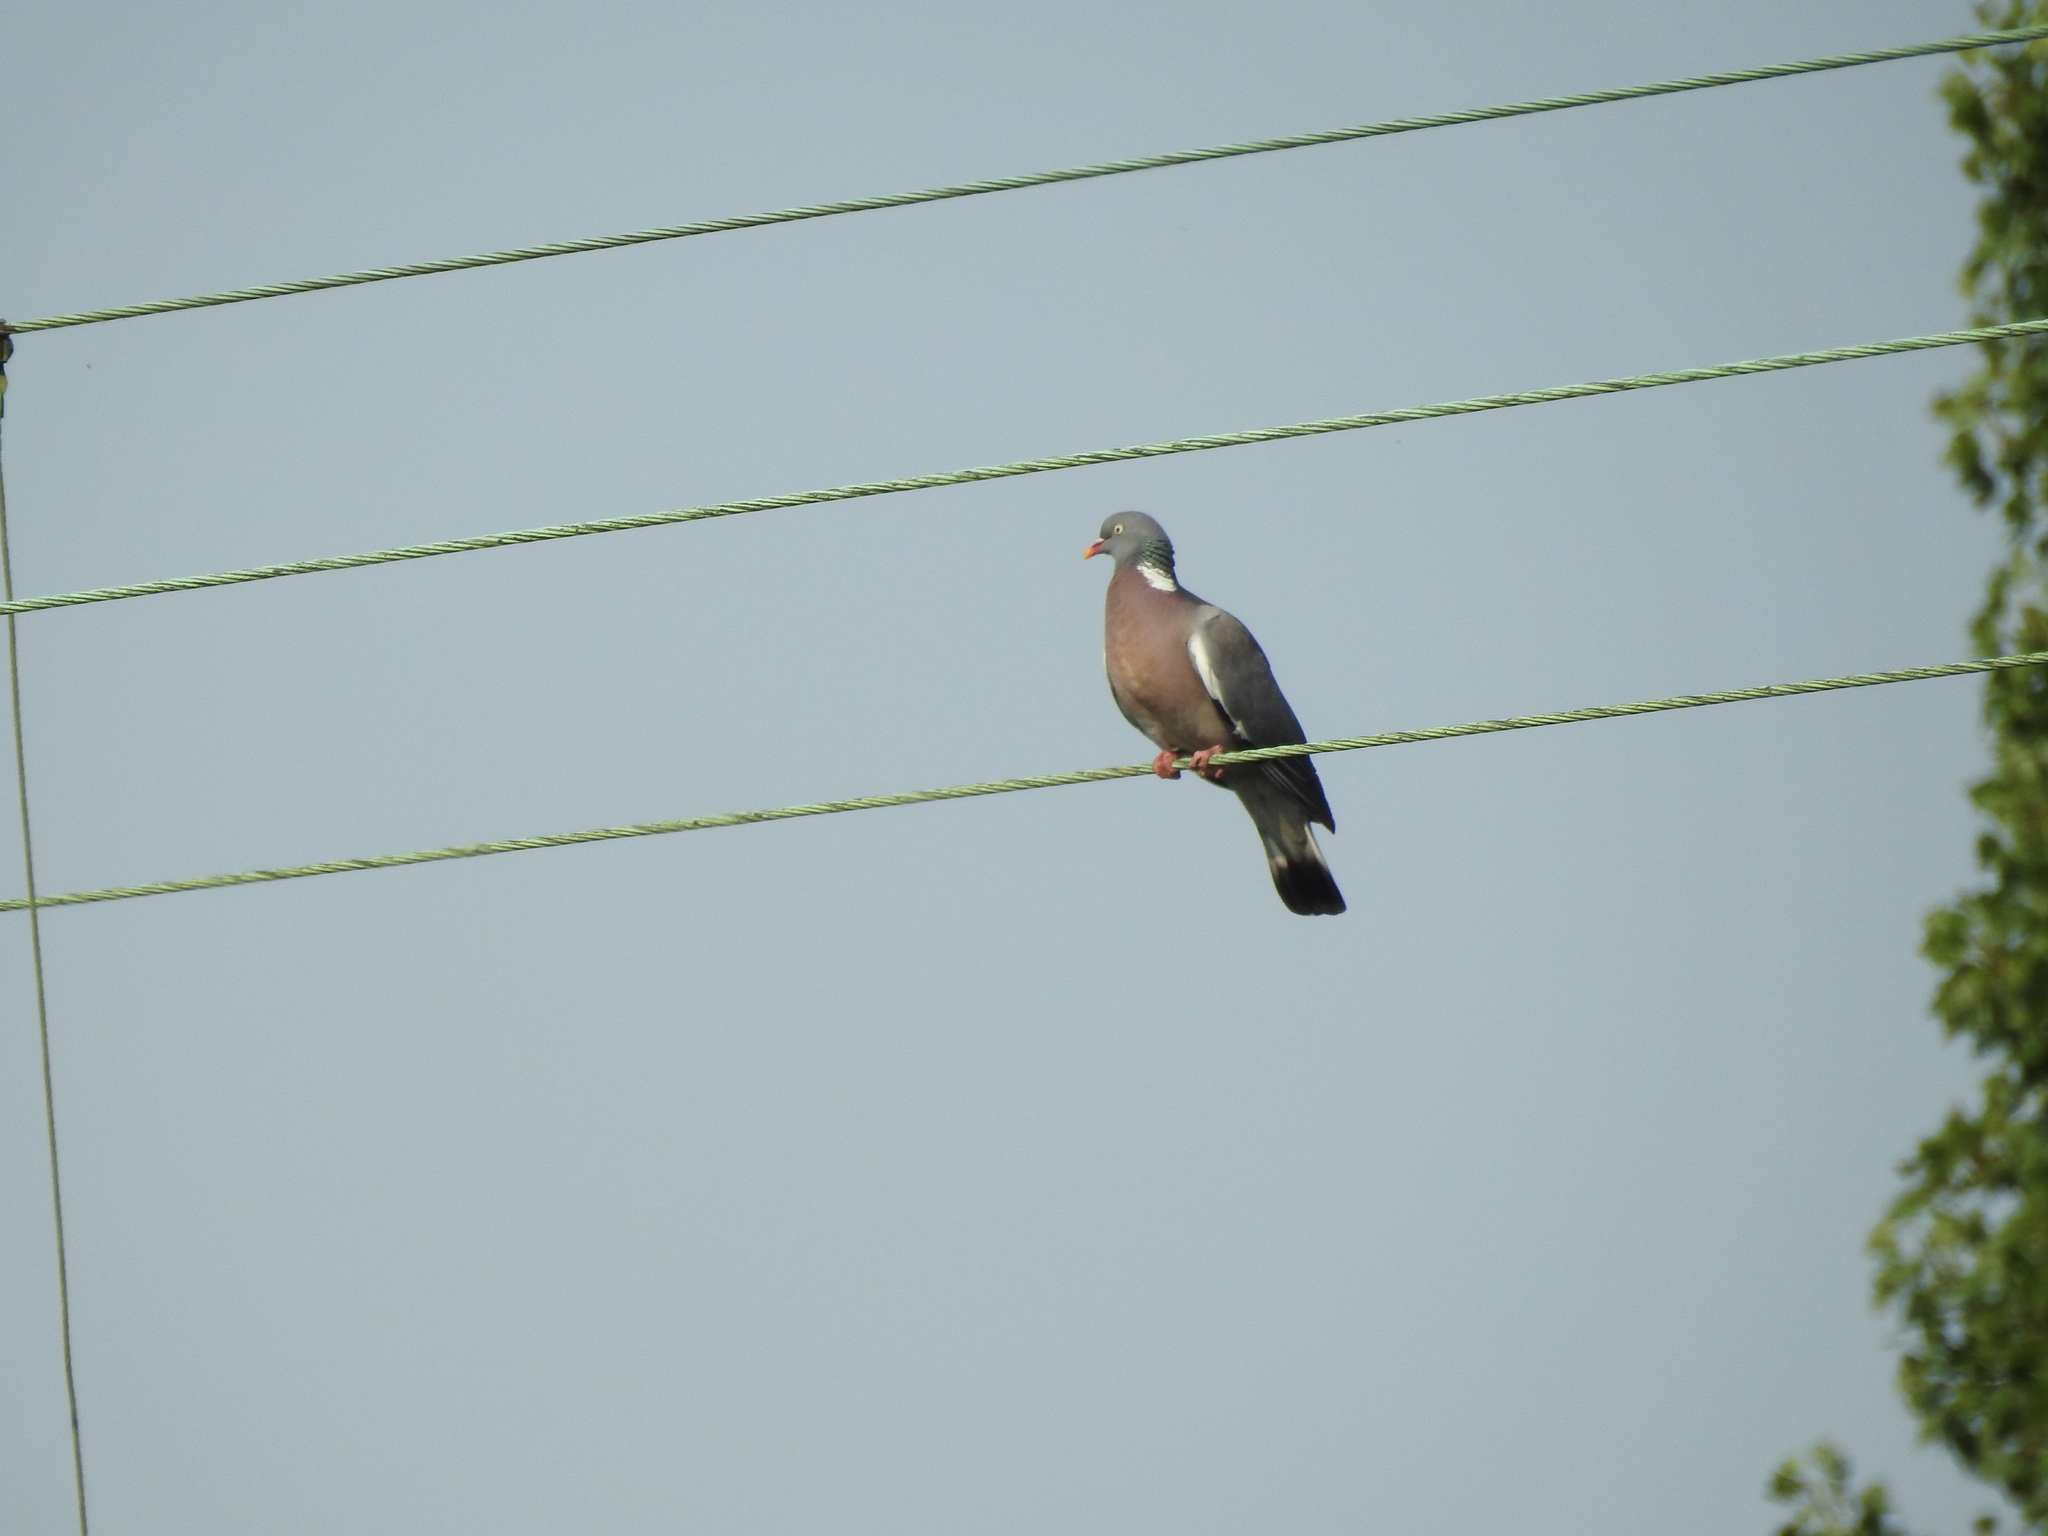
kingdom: Animalia
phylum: Chordata
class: Aves
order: Columbiformes
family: Columbidae
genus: Columba
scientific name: Columba palumbus
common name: Common wood pigeon
